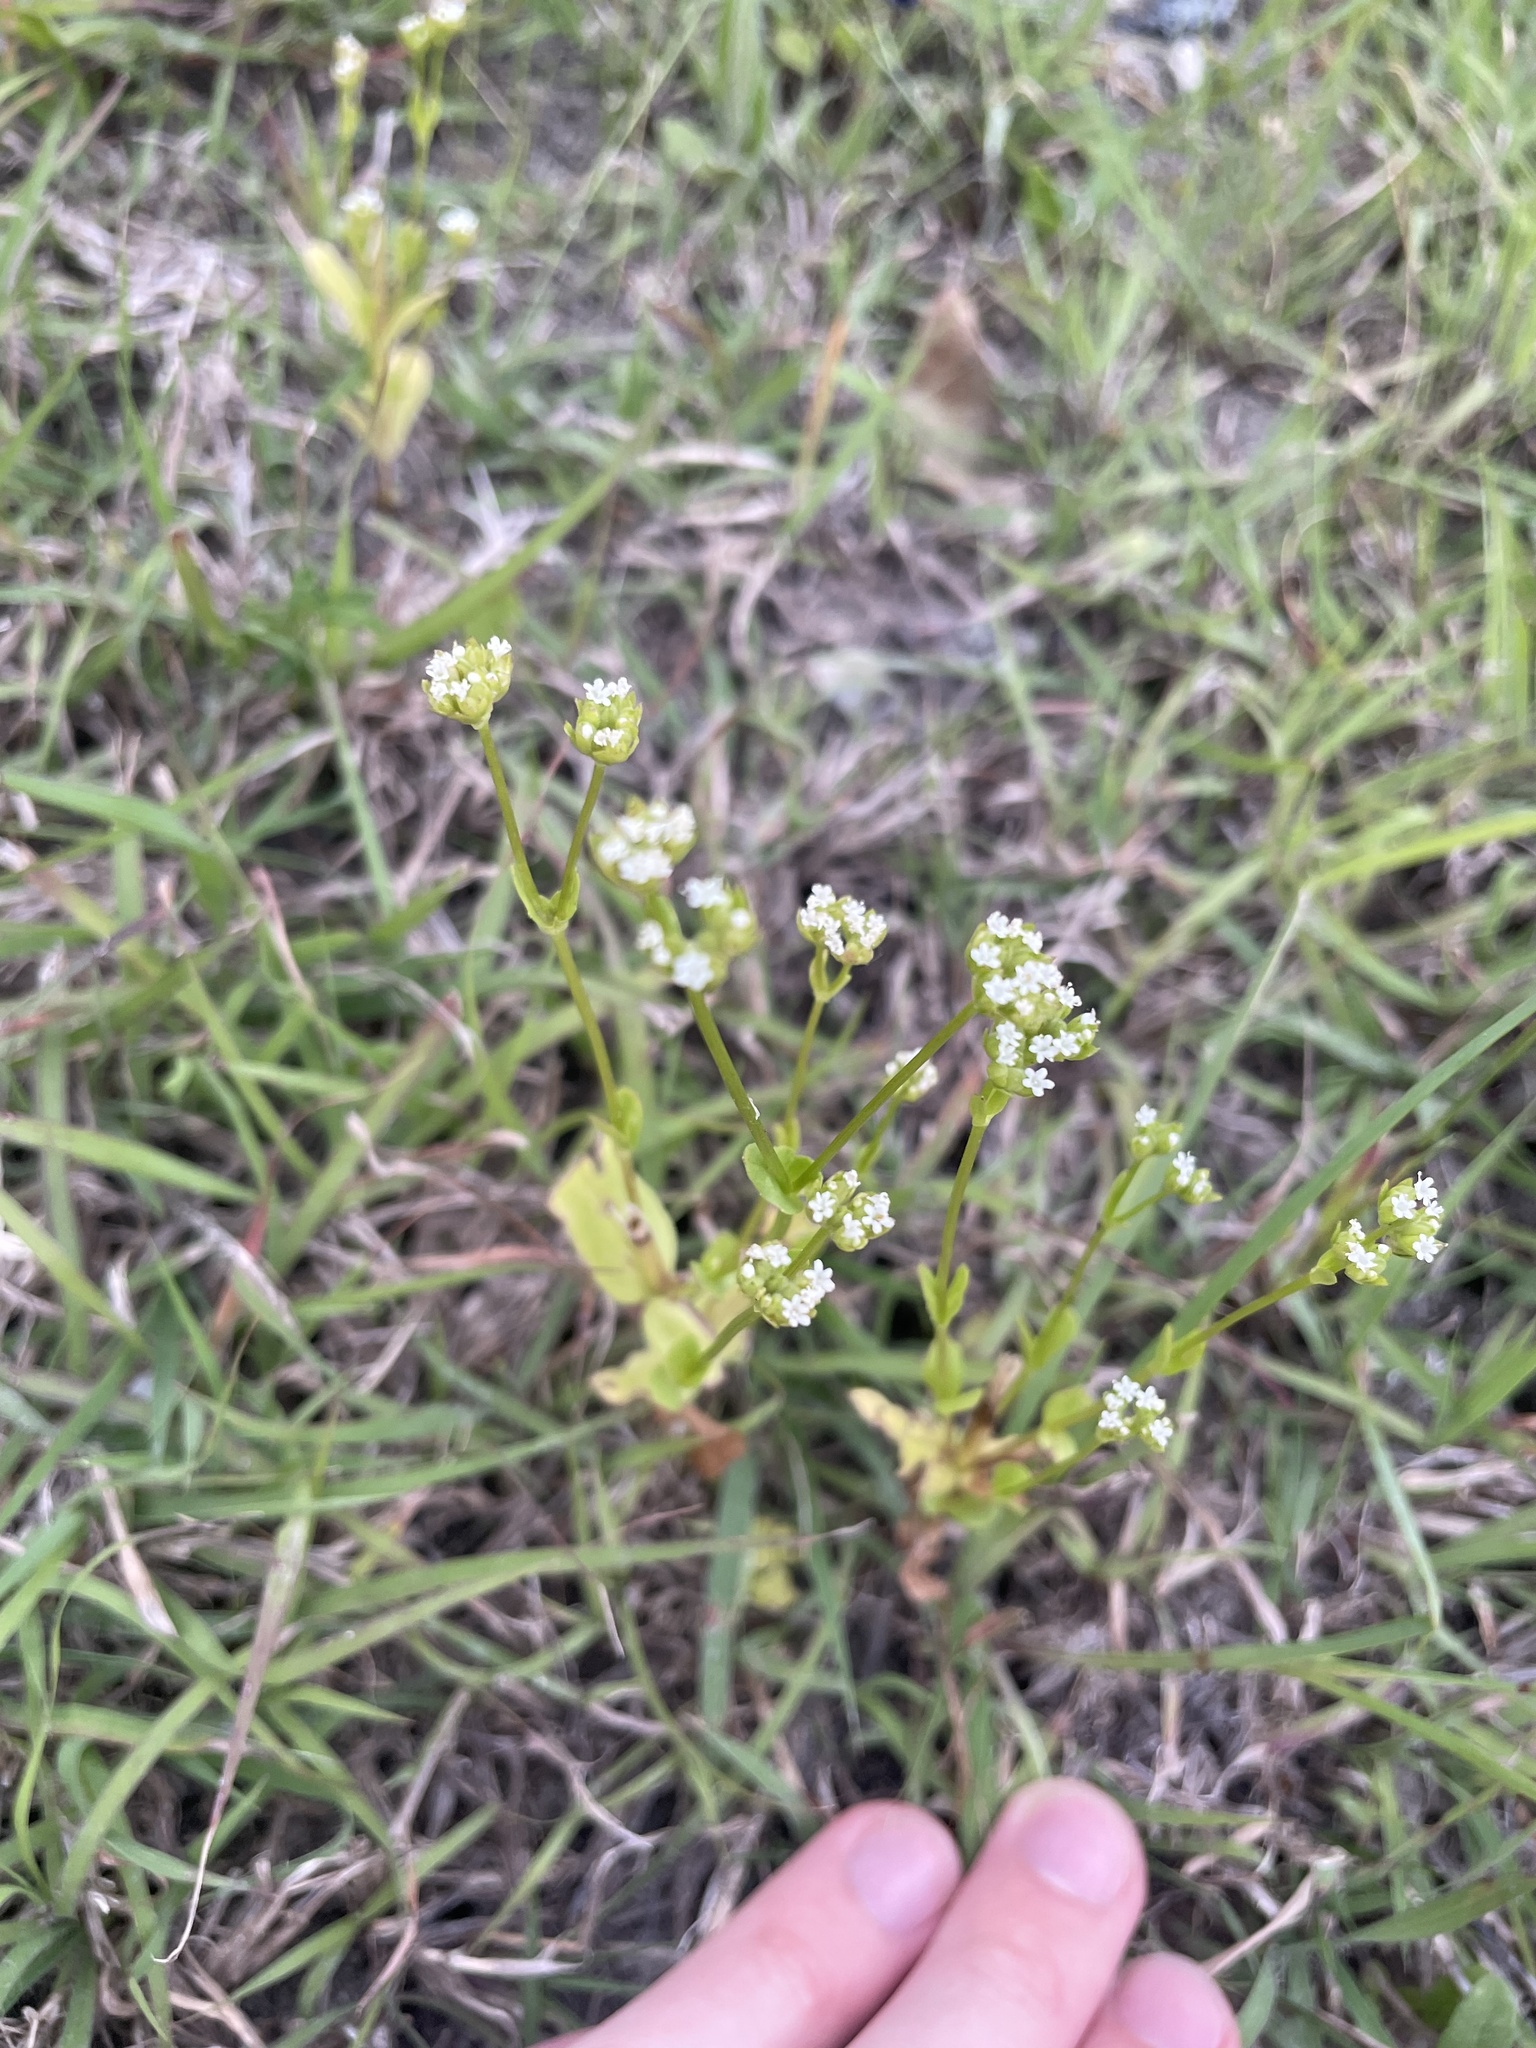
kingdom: Plantae
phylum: Tracheophyta
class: Magnoliopsida
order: Dipsacales
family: Caprifoliaceae
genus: Valerianella
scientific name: Valerianella radiata
